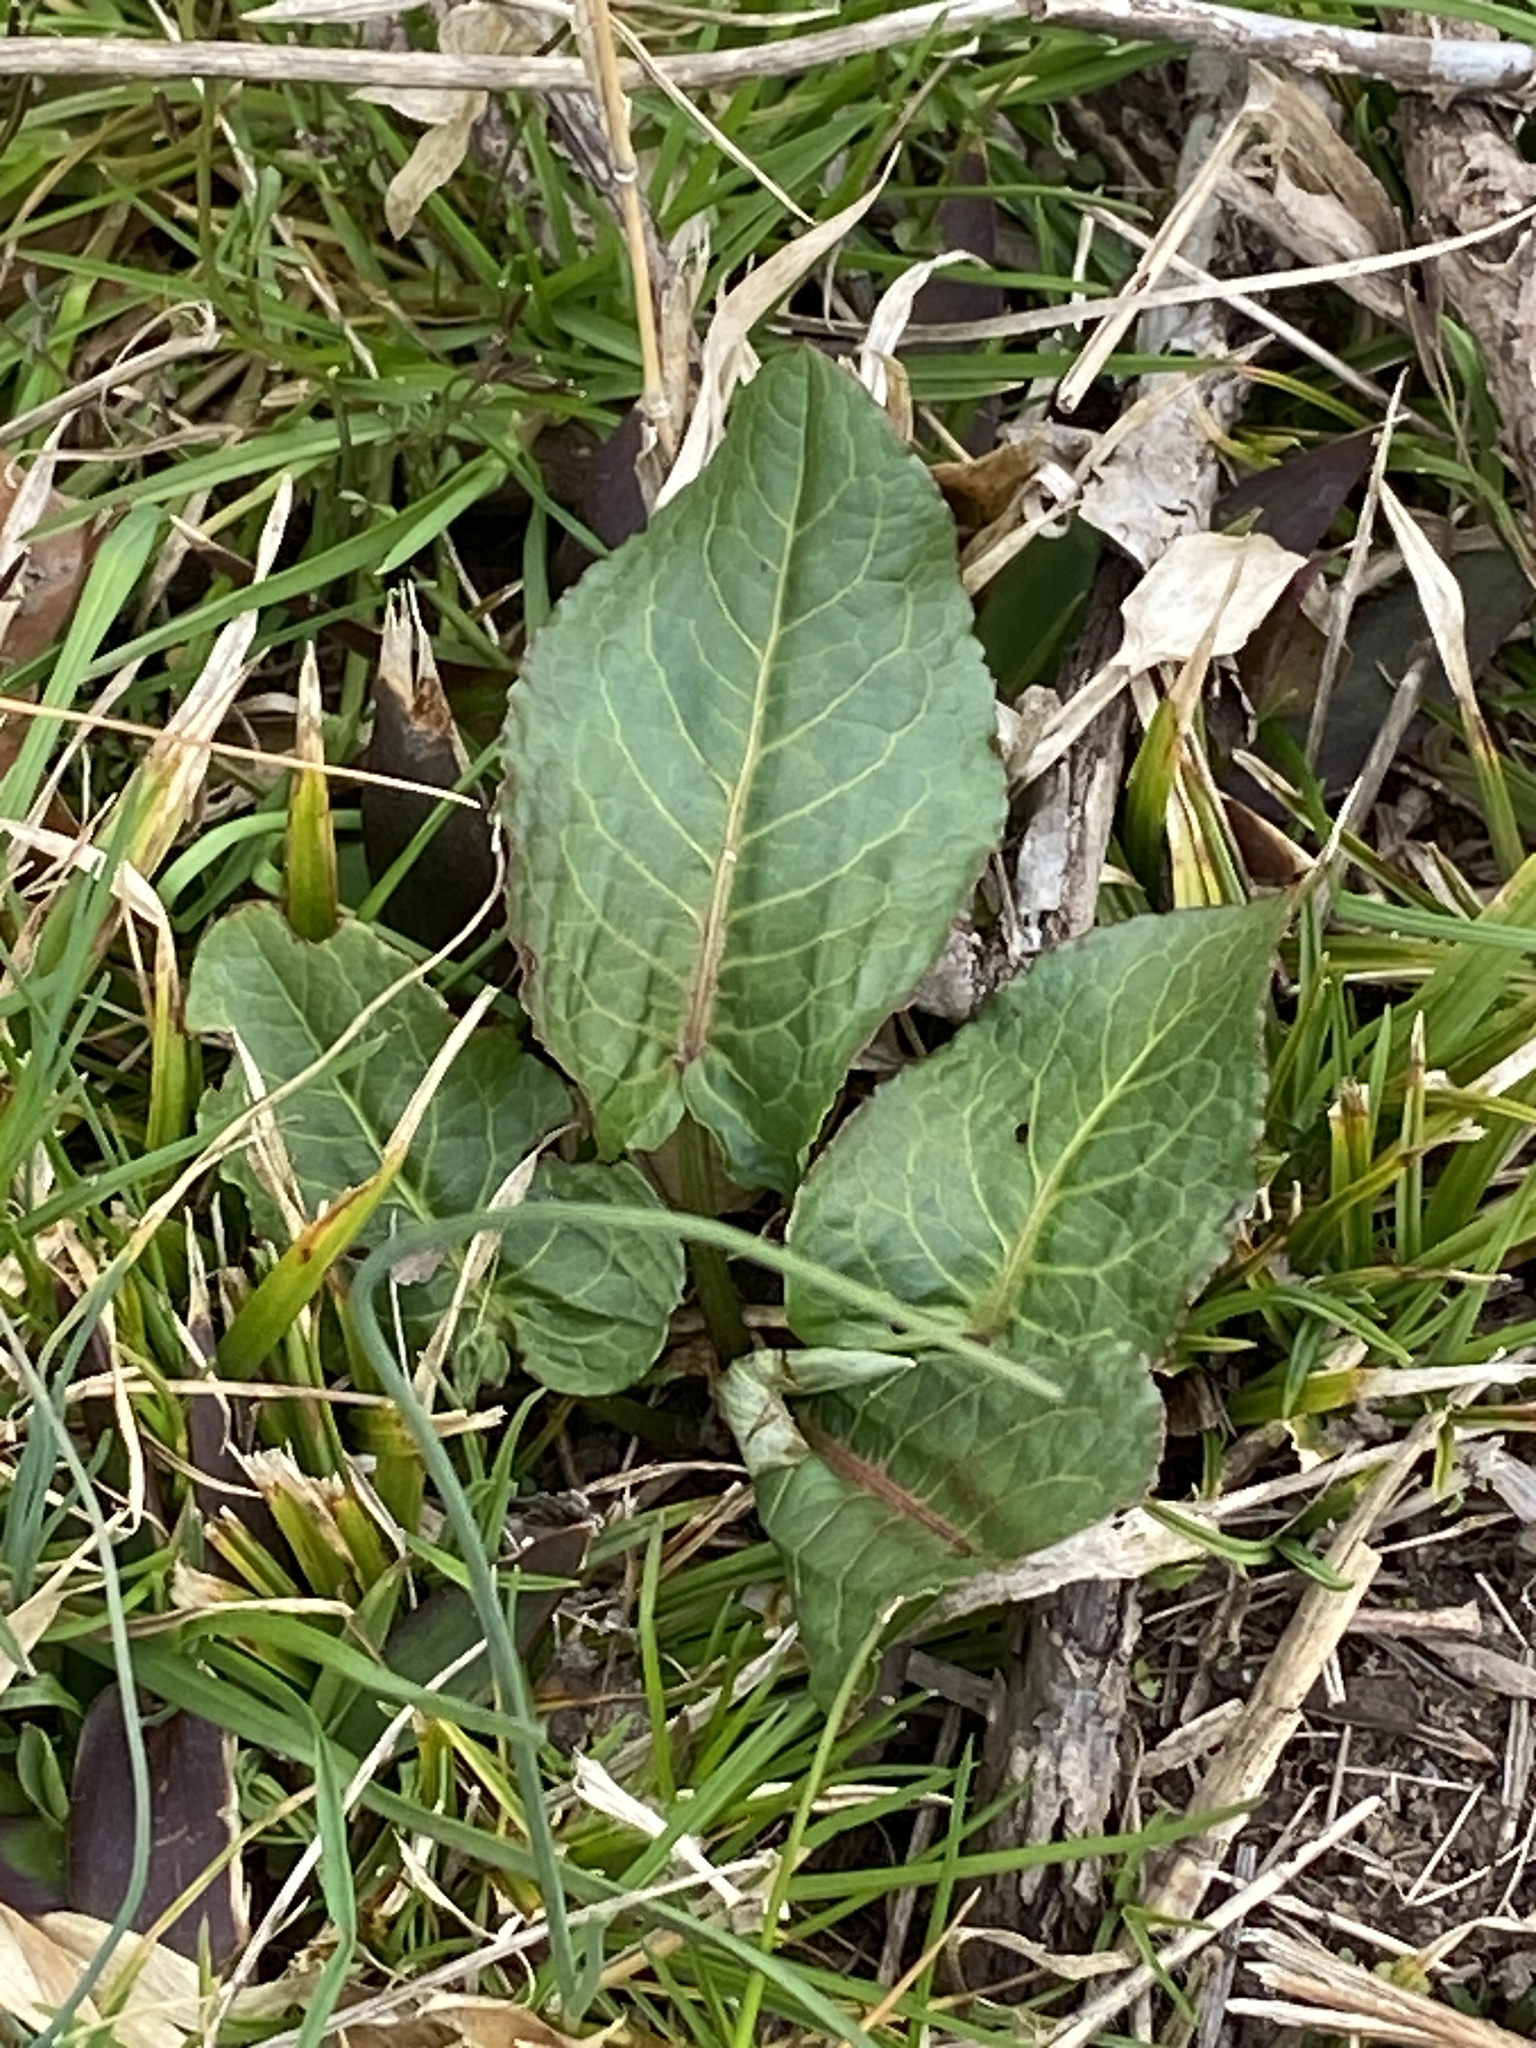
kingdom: Plantae
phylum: Tracheophyta
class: Magnoliopsida
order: Caryophyllales
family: Polygonaceae
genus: Rumex
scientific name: Rumex obtusifolius
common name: Bitter dock
